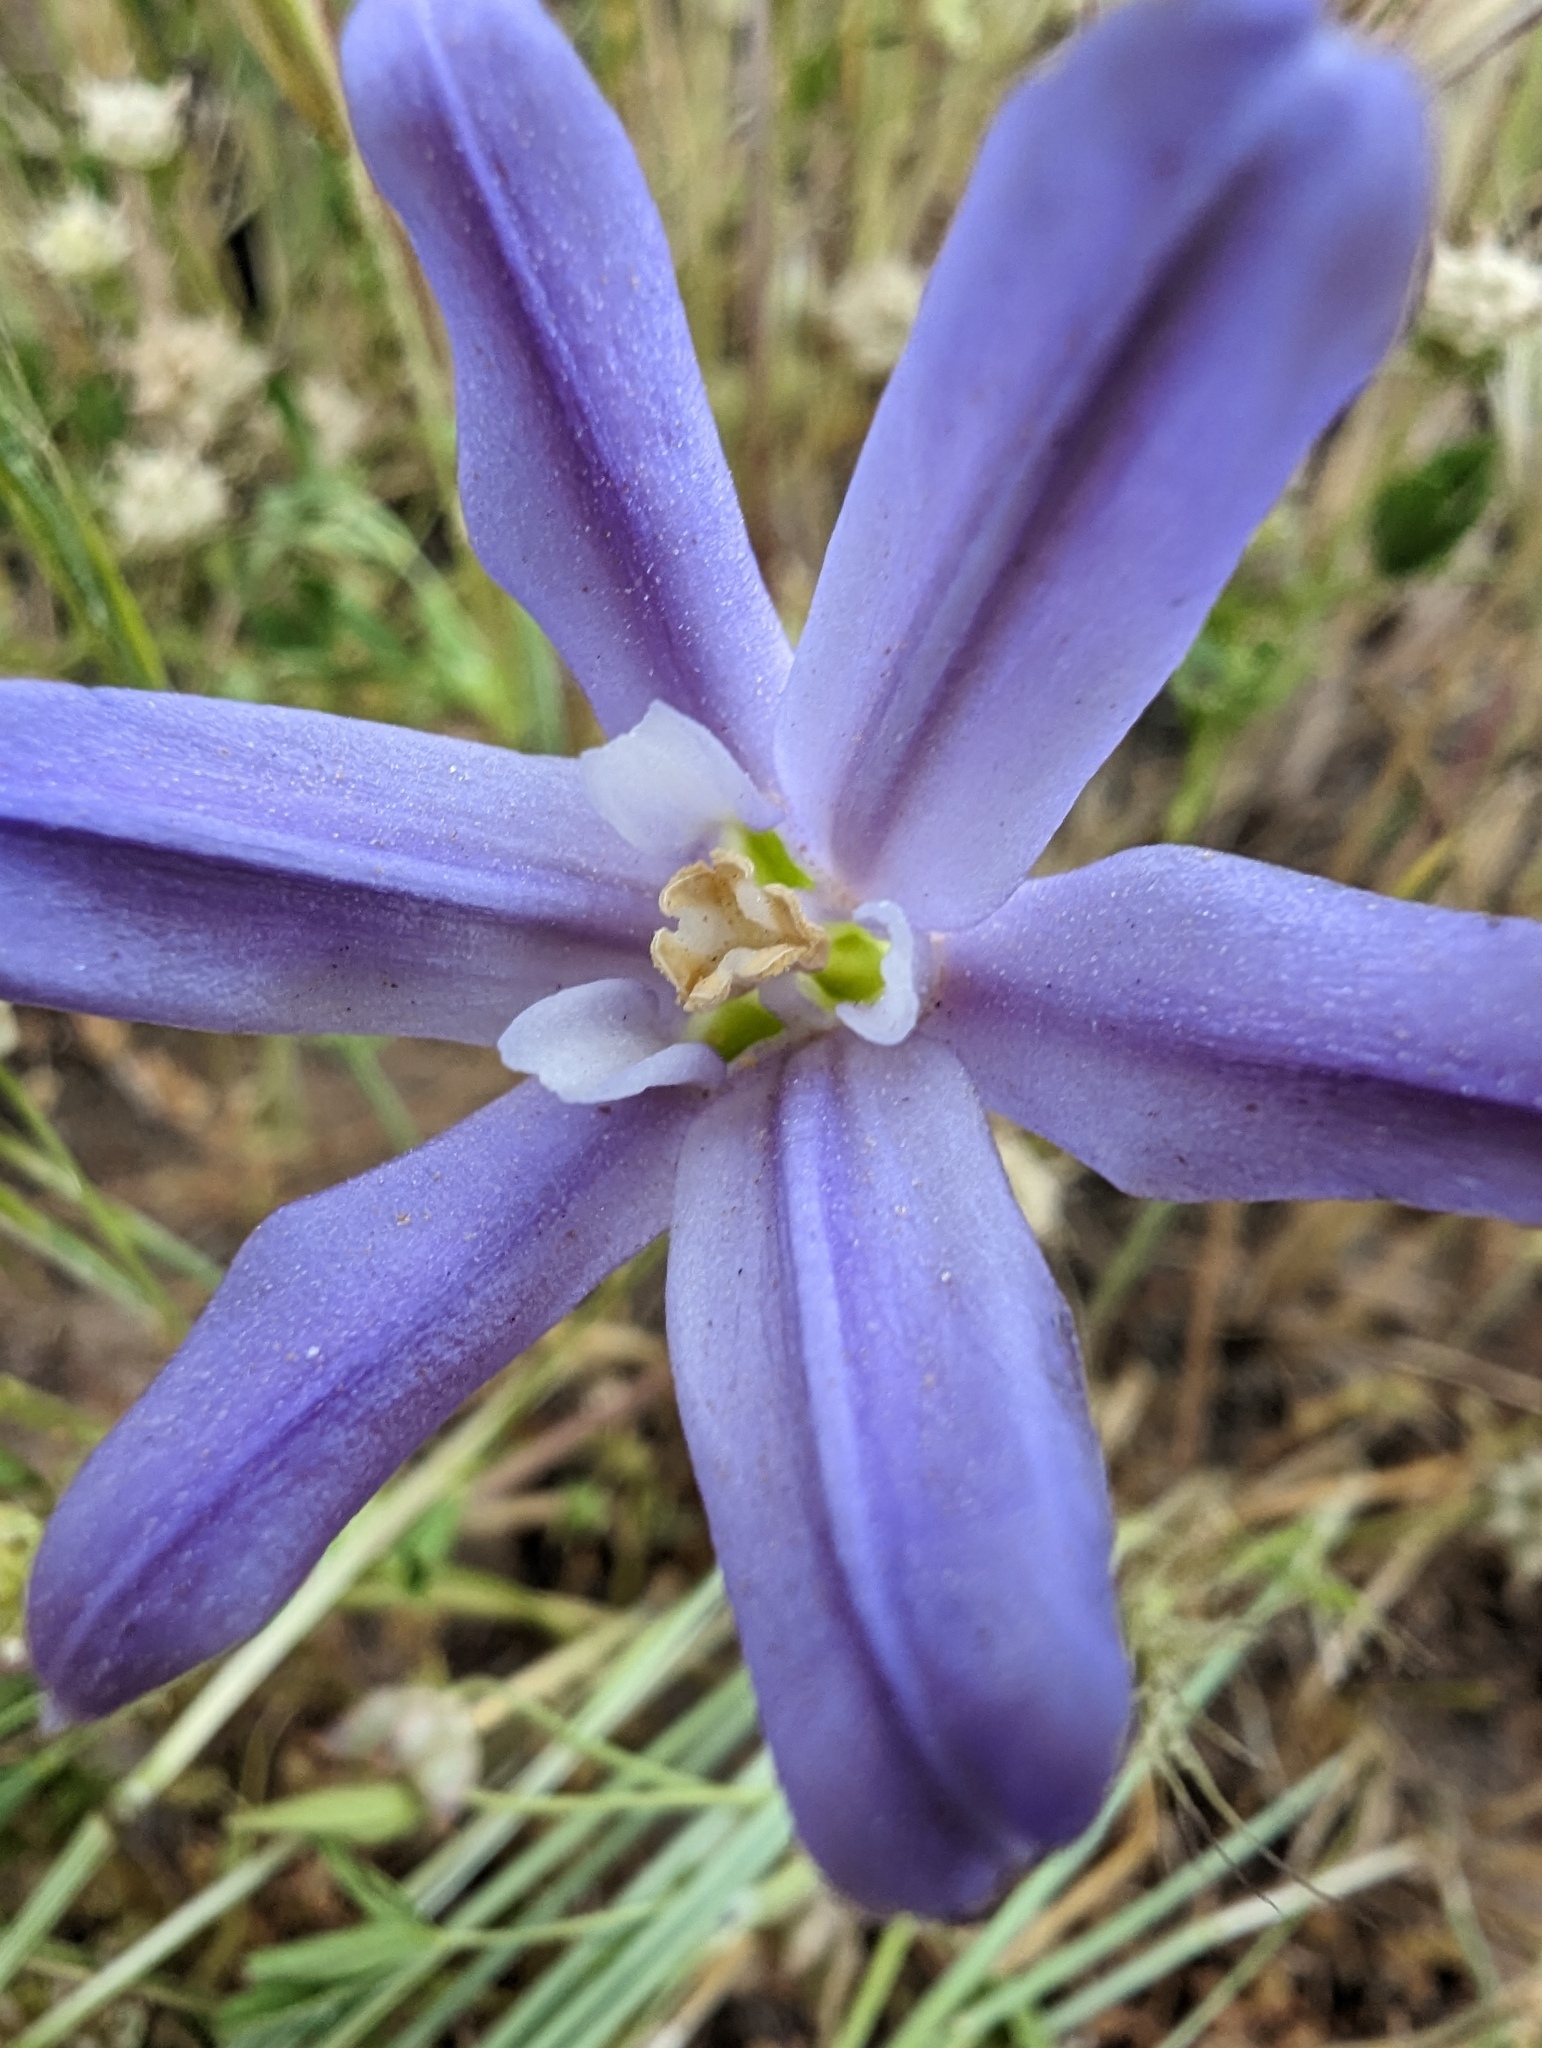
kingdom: Plantae
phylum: Tracheophyta
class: Liliopsida
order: Asparagales
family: Asparagaceae
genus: Brodiaea
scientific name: Brodiaea terrestris
